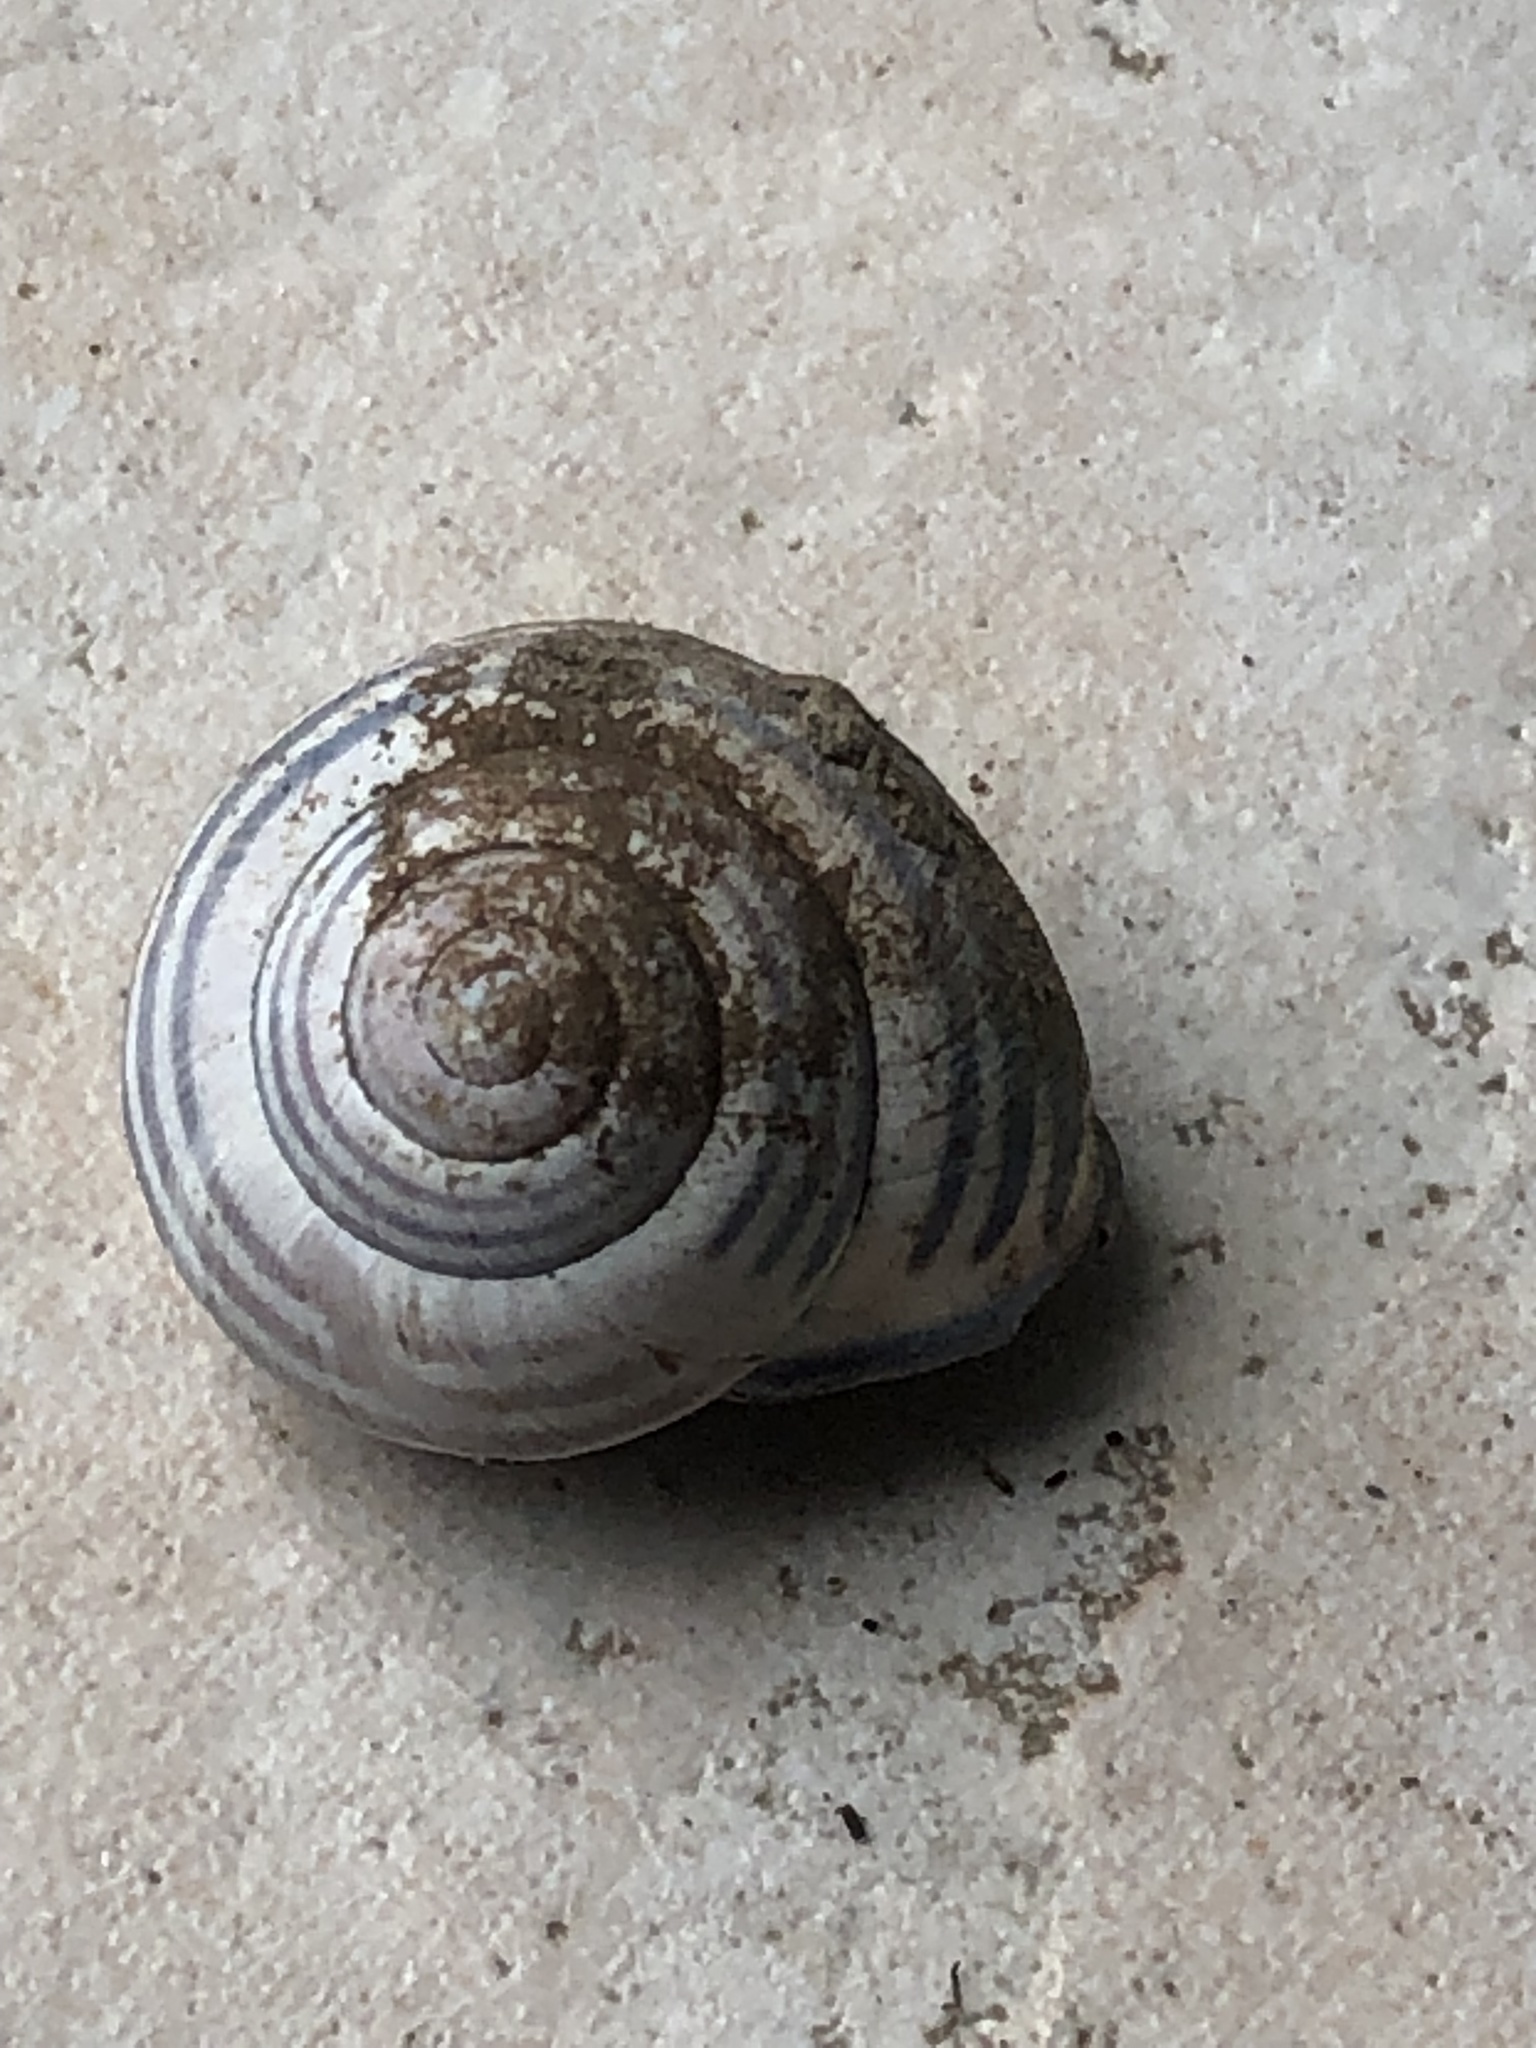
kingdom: Animalia
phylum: Mollusca
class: Gastropoda
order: Stylommatophora
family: Helicidae
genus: Cepaea
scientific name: Cepaea nemoralis
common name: Grovesnail
